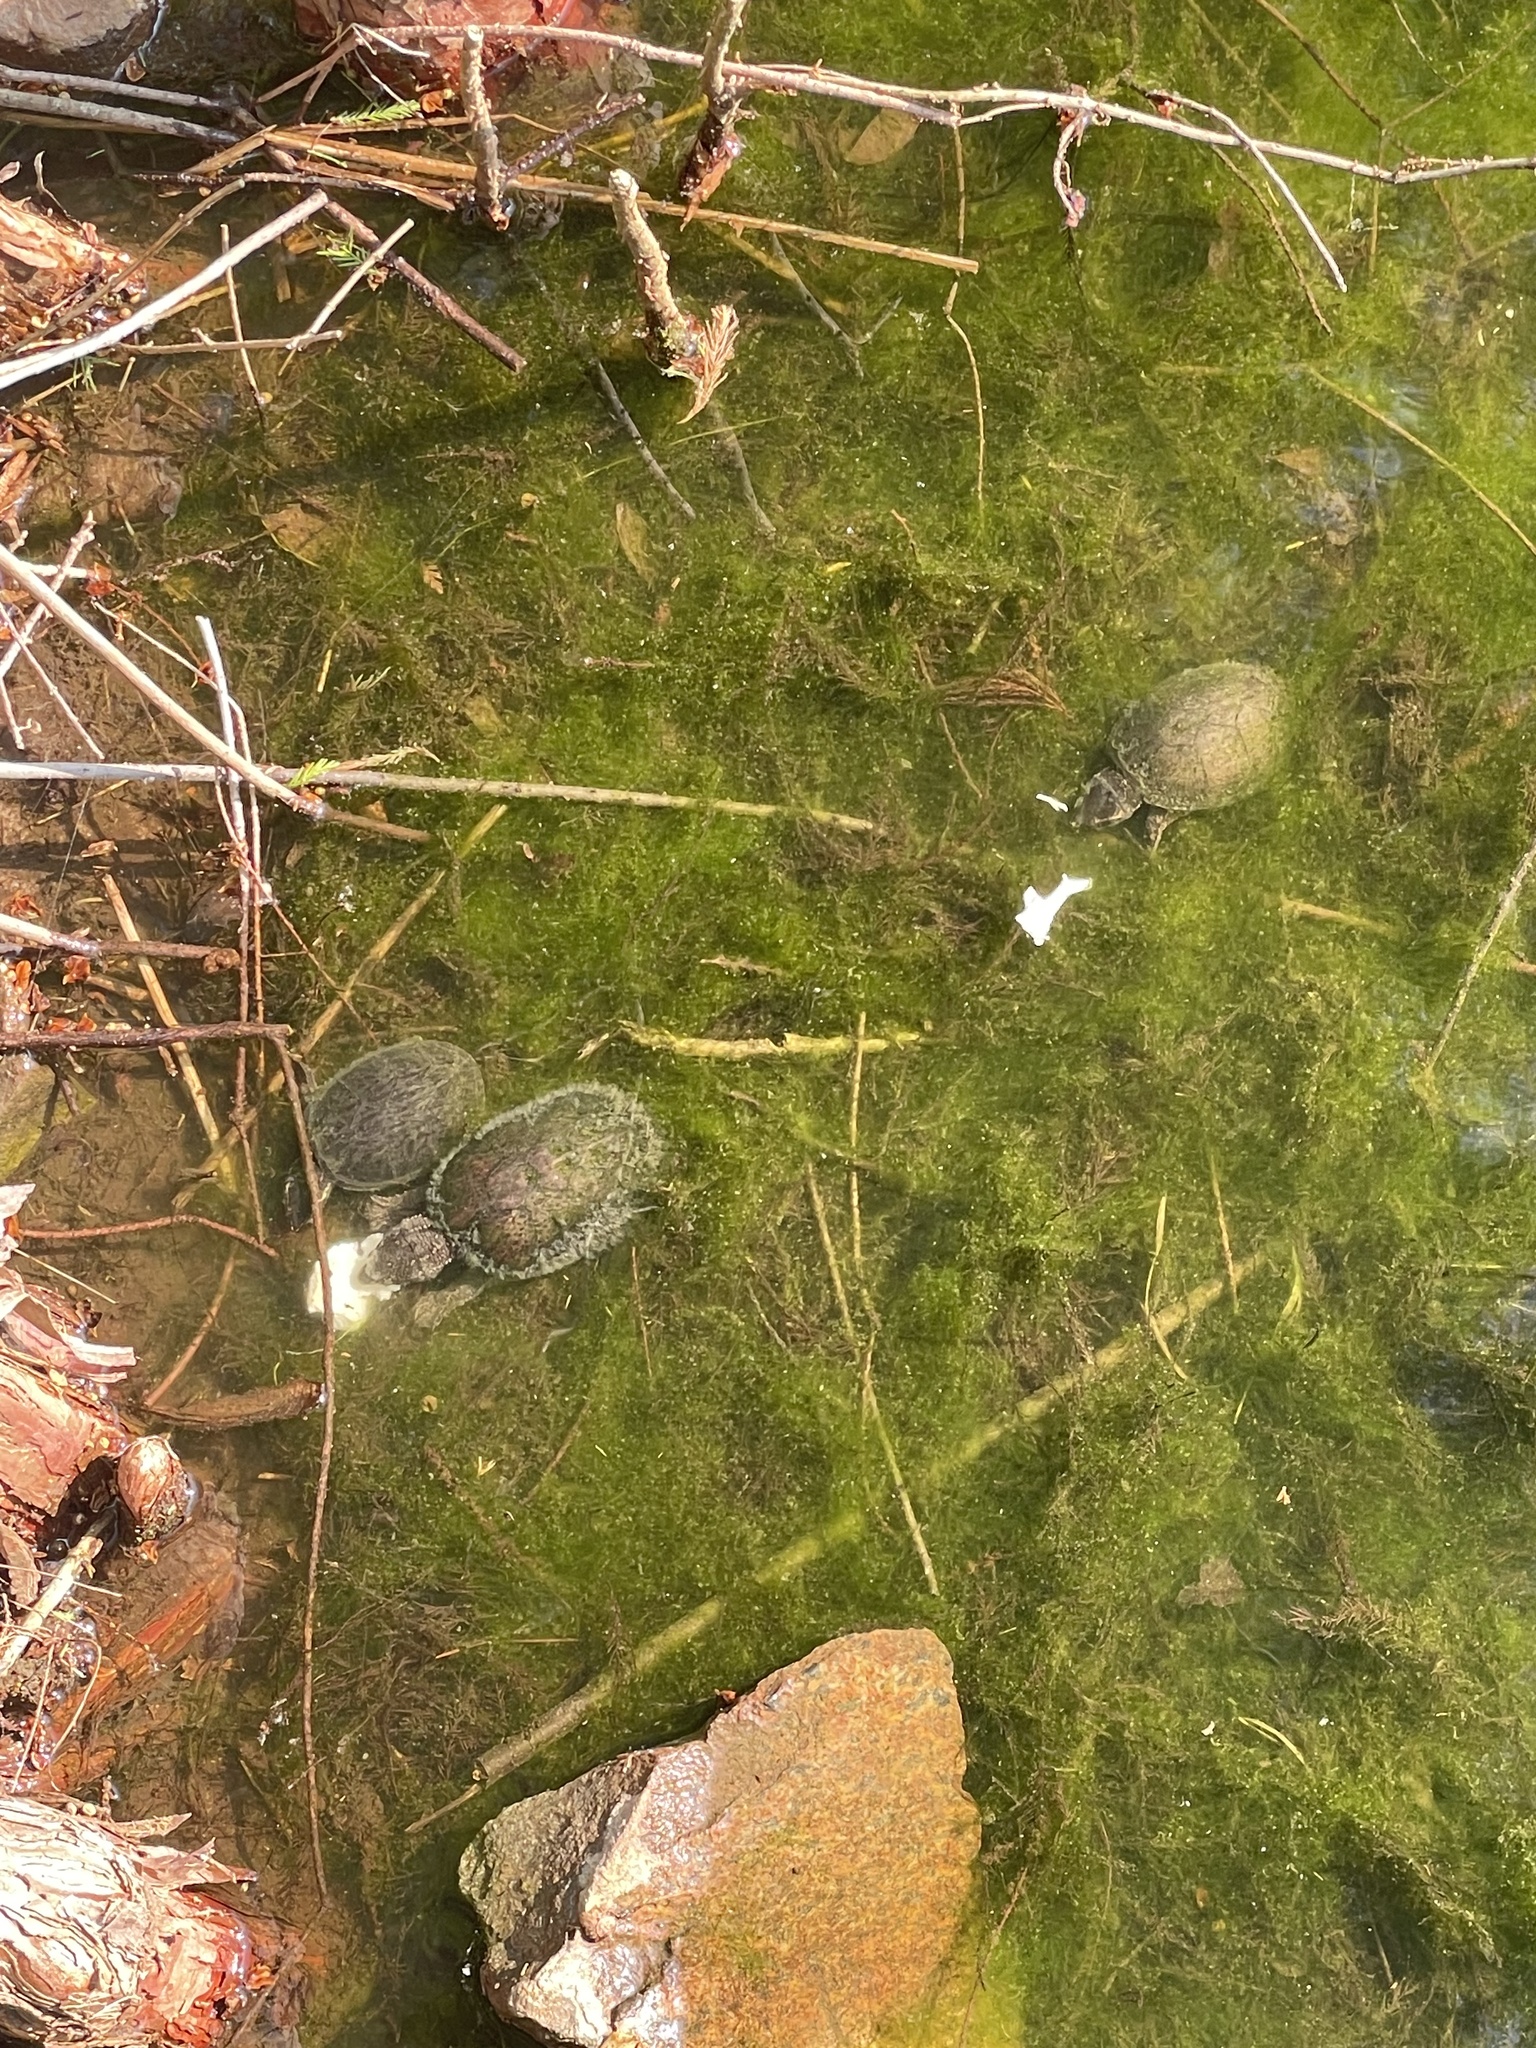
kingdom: Animalia
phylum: Chordata
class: Testudines
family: Kinosternidae
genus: Sternotherus
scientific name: Sternotherus odoratus
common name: Common musk turtle
